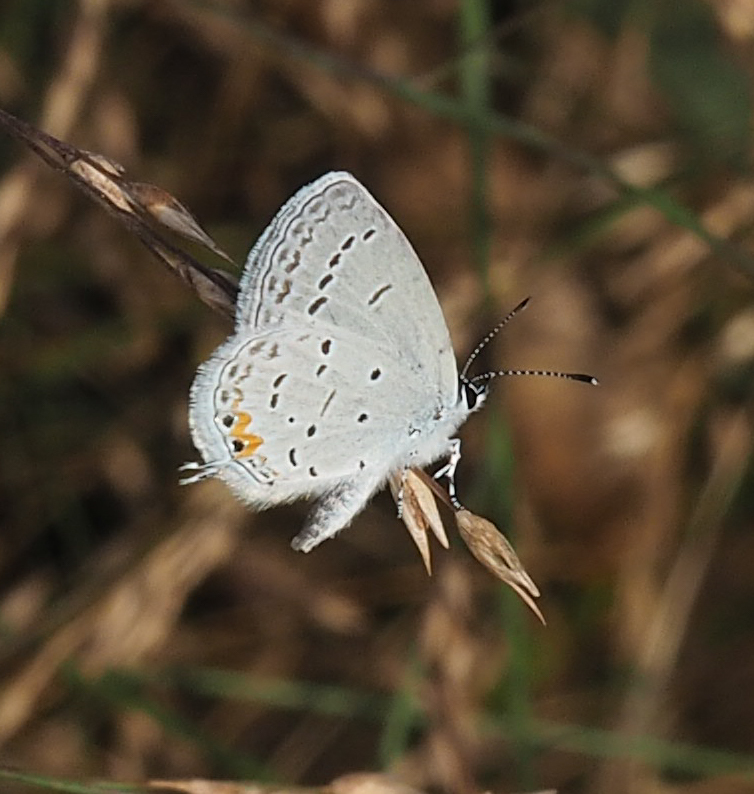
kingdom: Animalia
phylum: Arthropoda
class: Insecta
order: Lepidoptera
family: Lycaenidae
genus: Elkalyce
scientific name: Elkalyce comyntas
